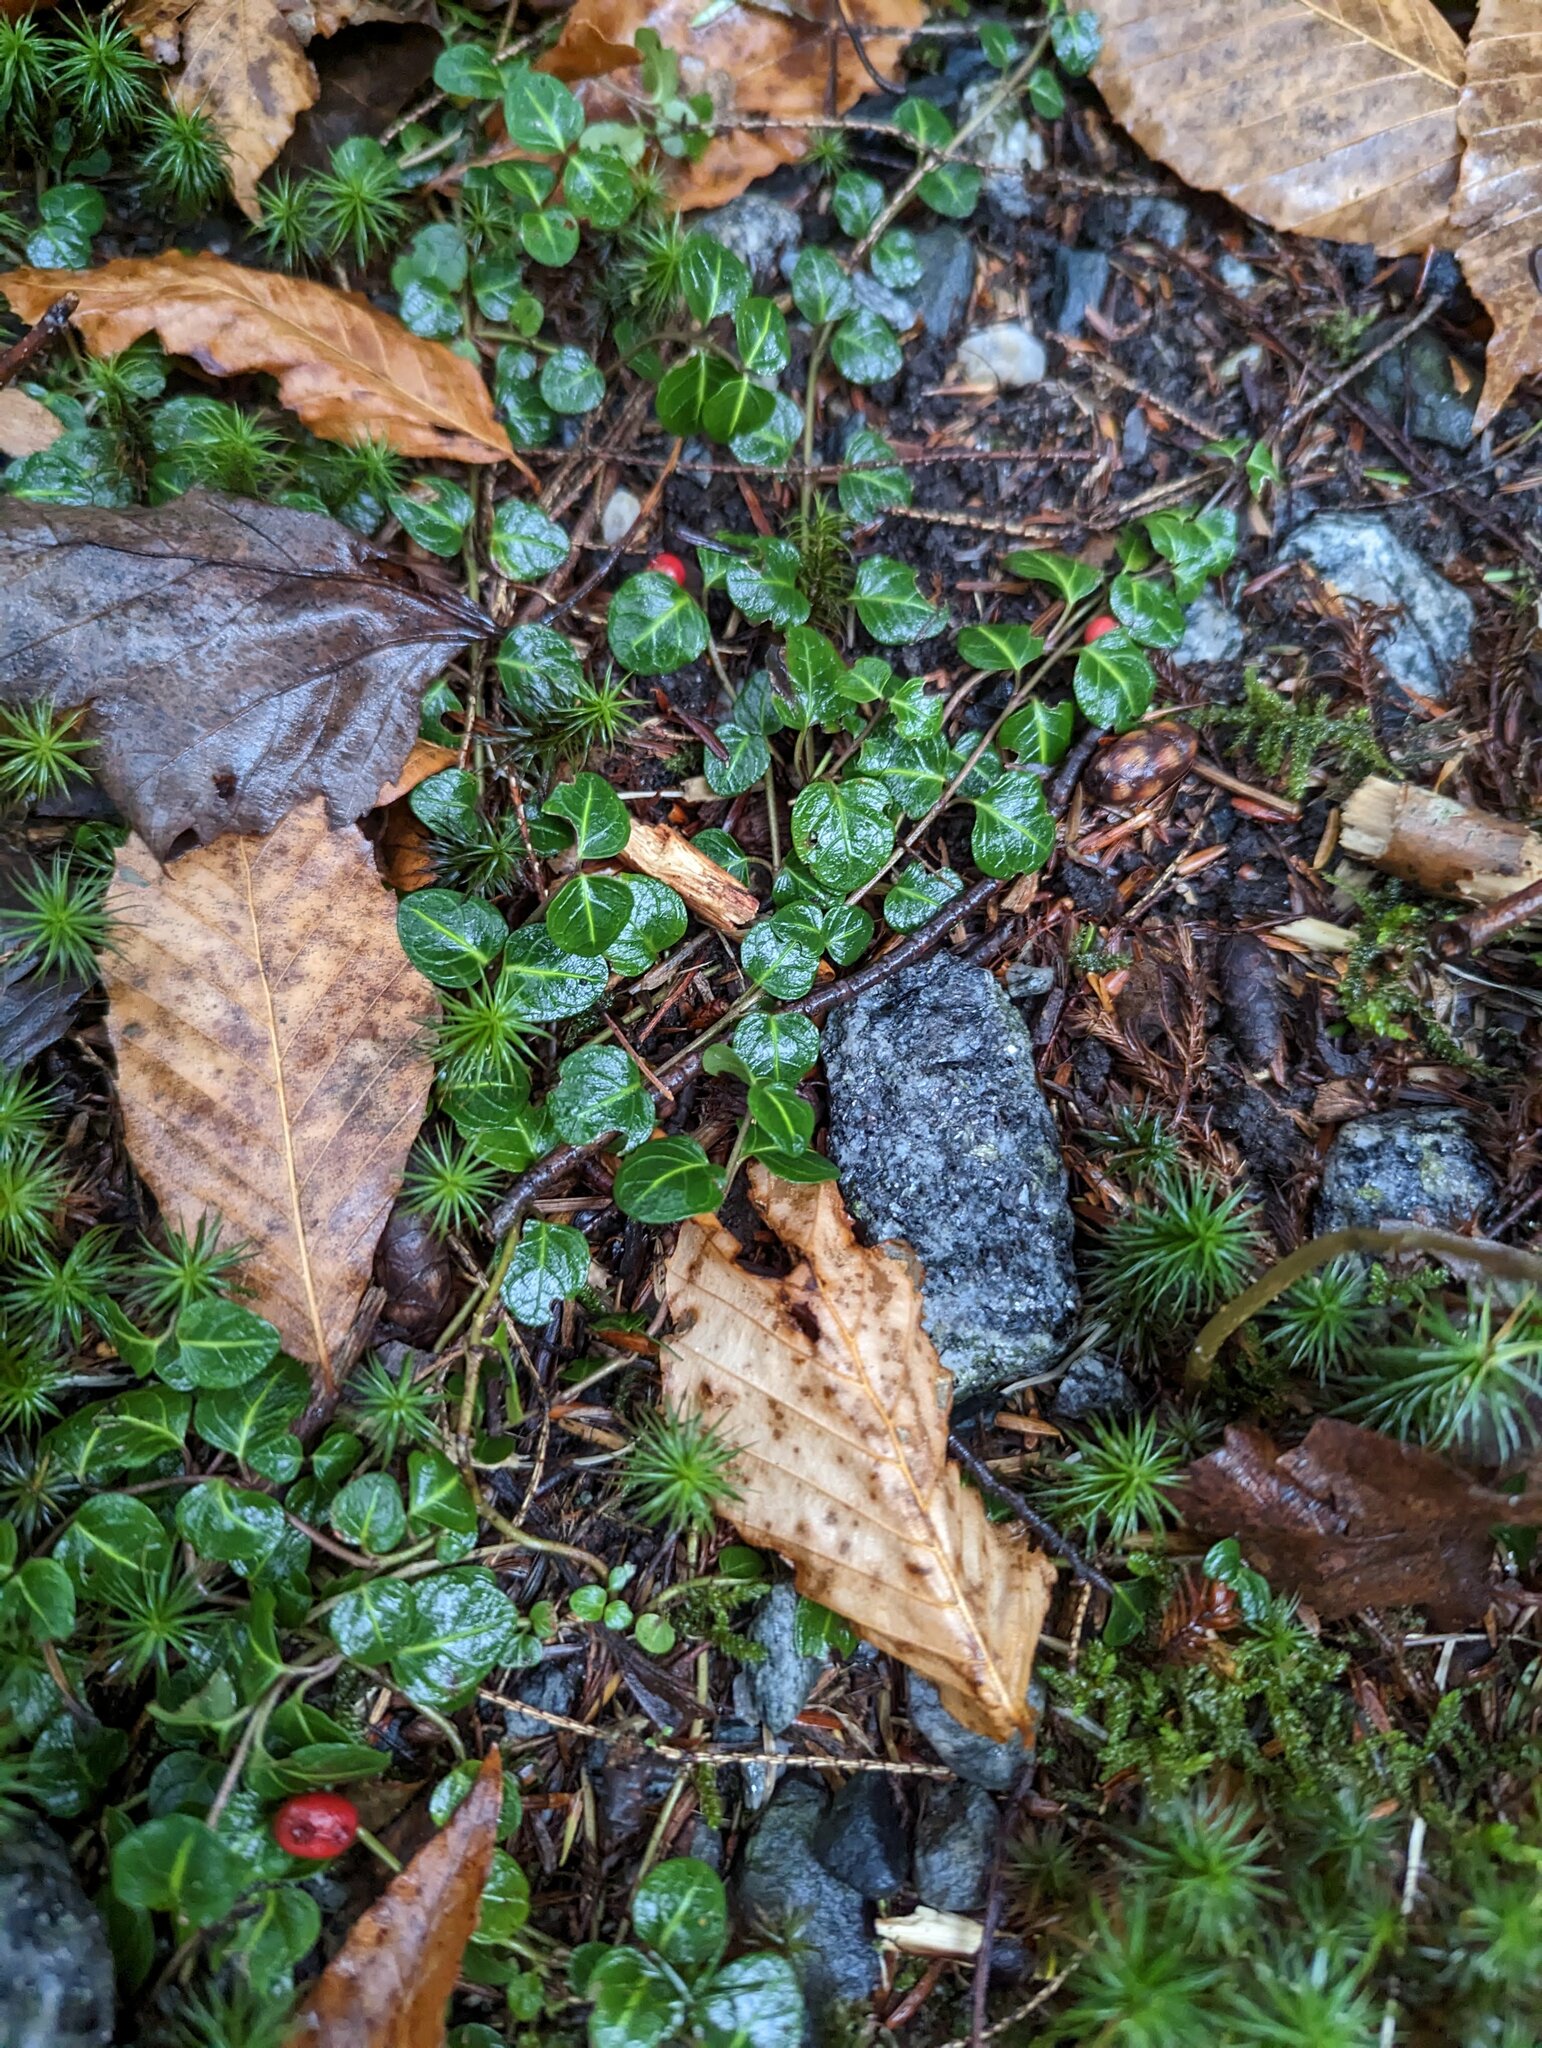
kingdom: Plantae
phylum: Tracheophyta
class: Magnoliopsida
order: Fagales
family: Fagaceae
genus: Fagus
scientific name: Fagus grandifolia
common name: American beech
